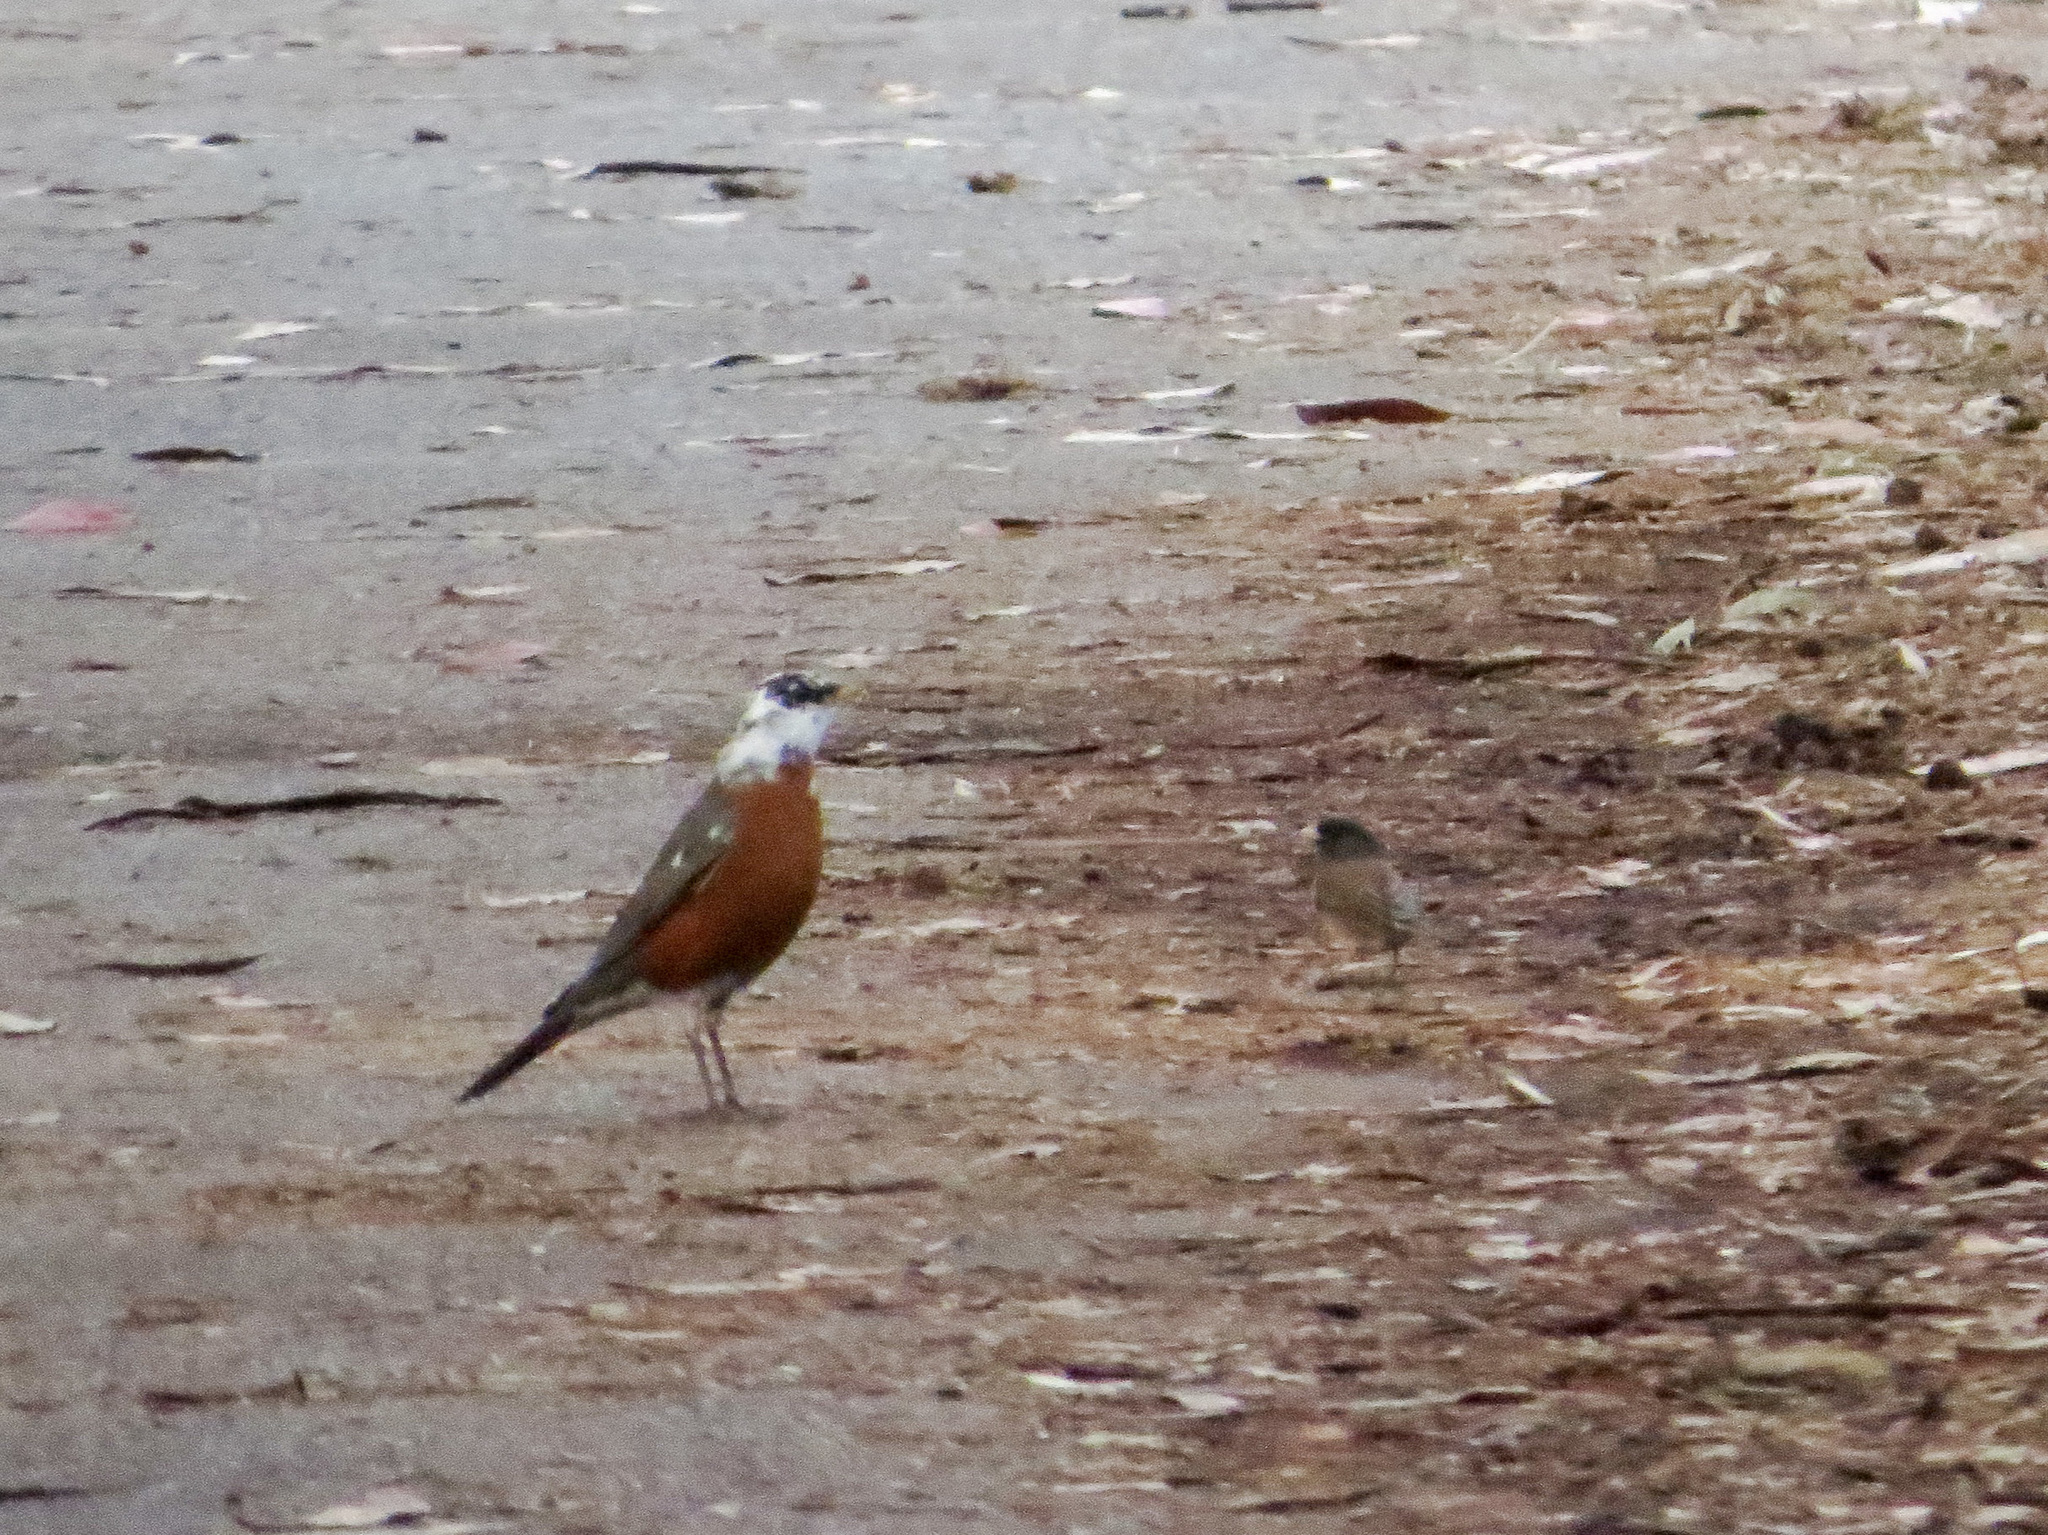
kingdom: Animalia
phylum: Chordata
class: Aves
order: Passeriformes
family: Turdidae
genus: Turdus
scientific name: Turdus migratorius
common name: American robin
